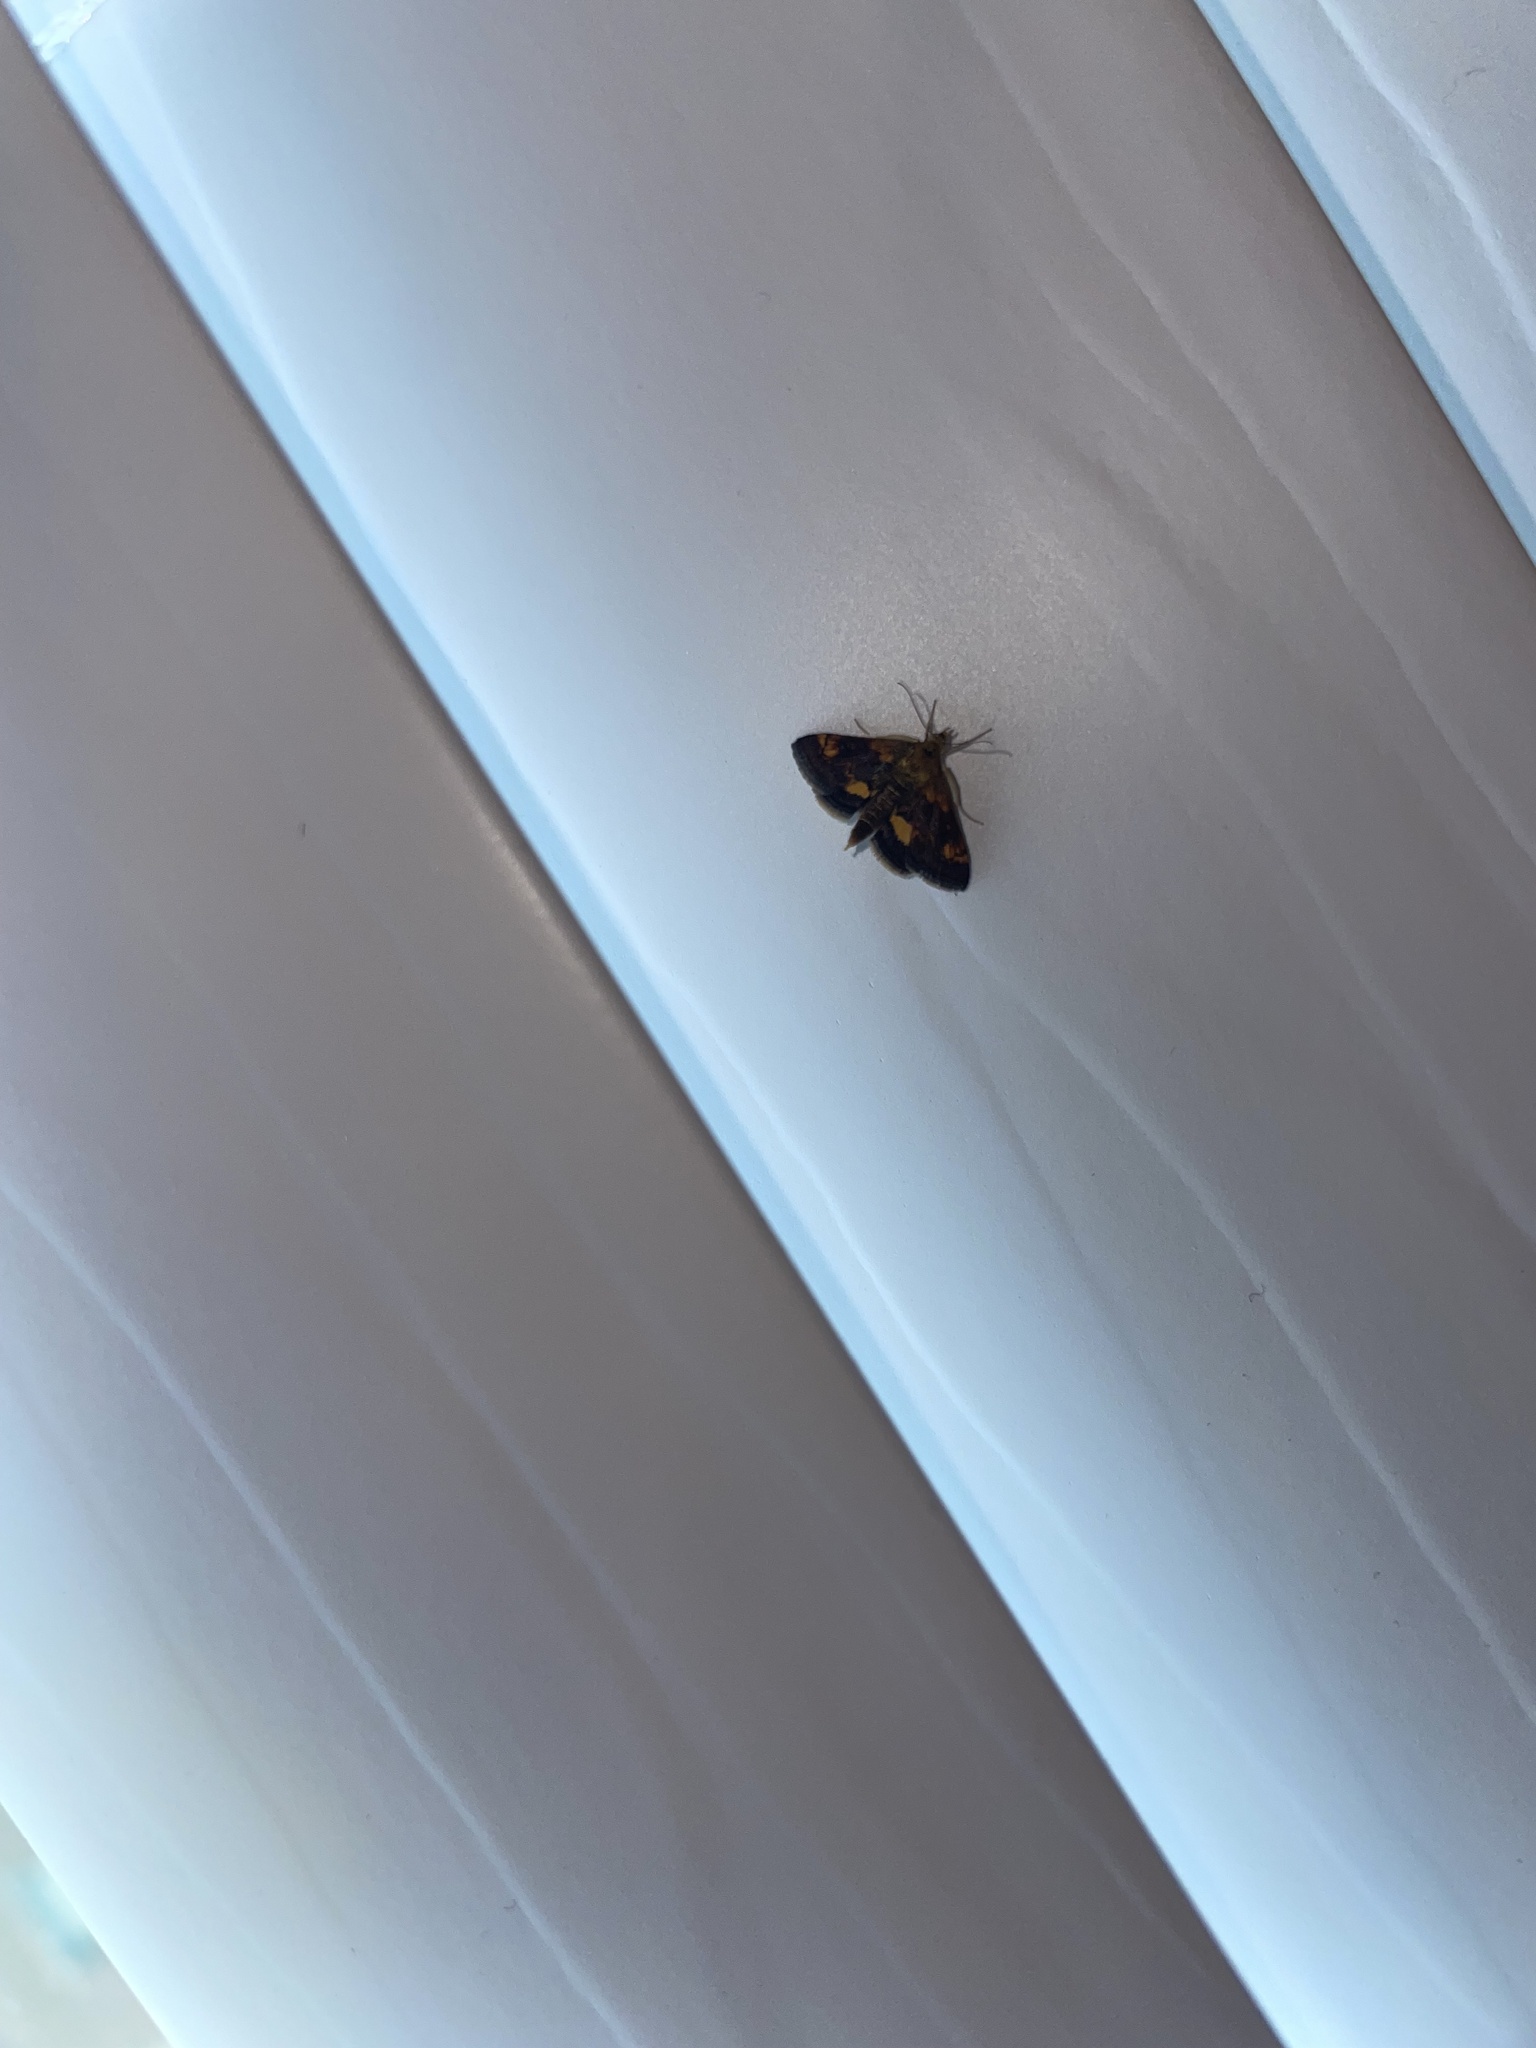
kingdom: Animalia
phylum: Arthropoda
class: Insecta
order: Lepidoptera
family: Crambidae
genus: Pyrausta
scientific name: Pyrausta generosa
